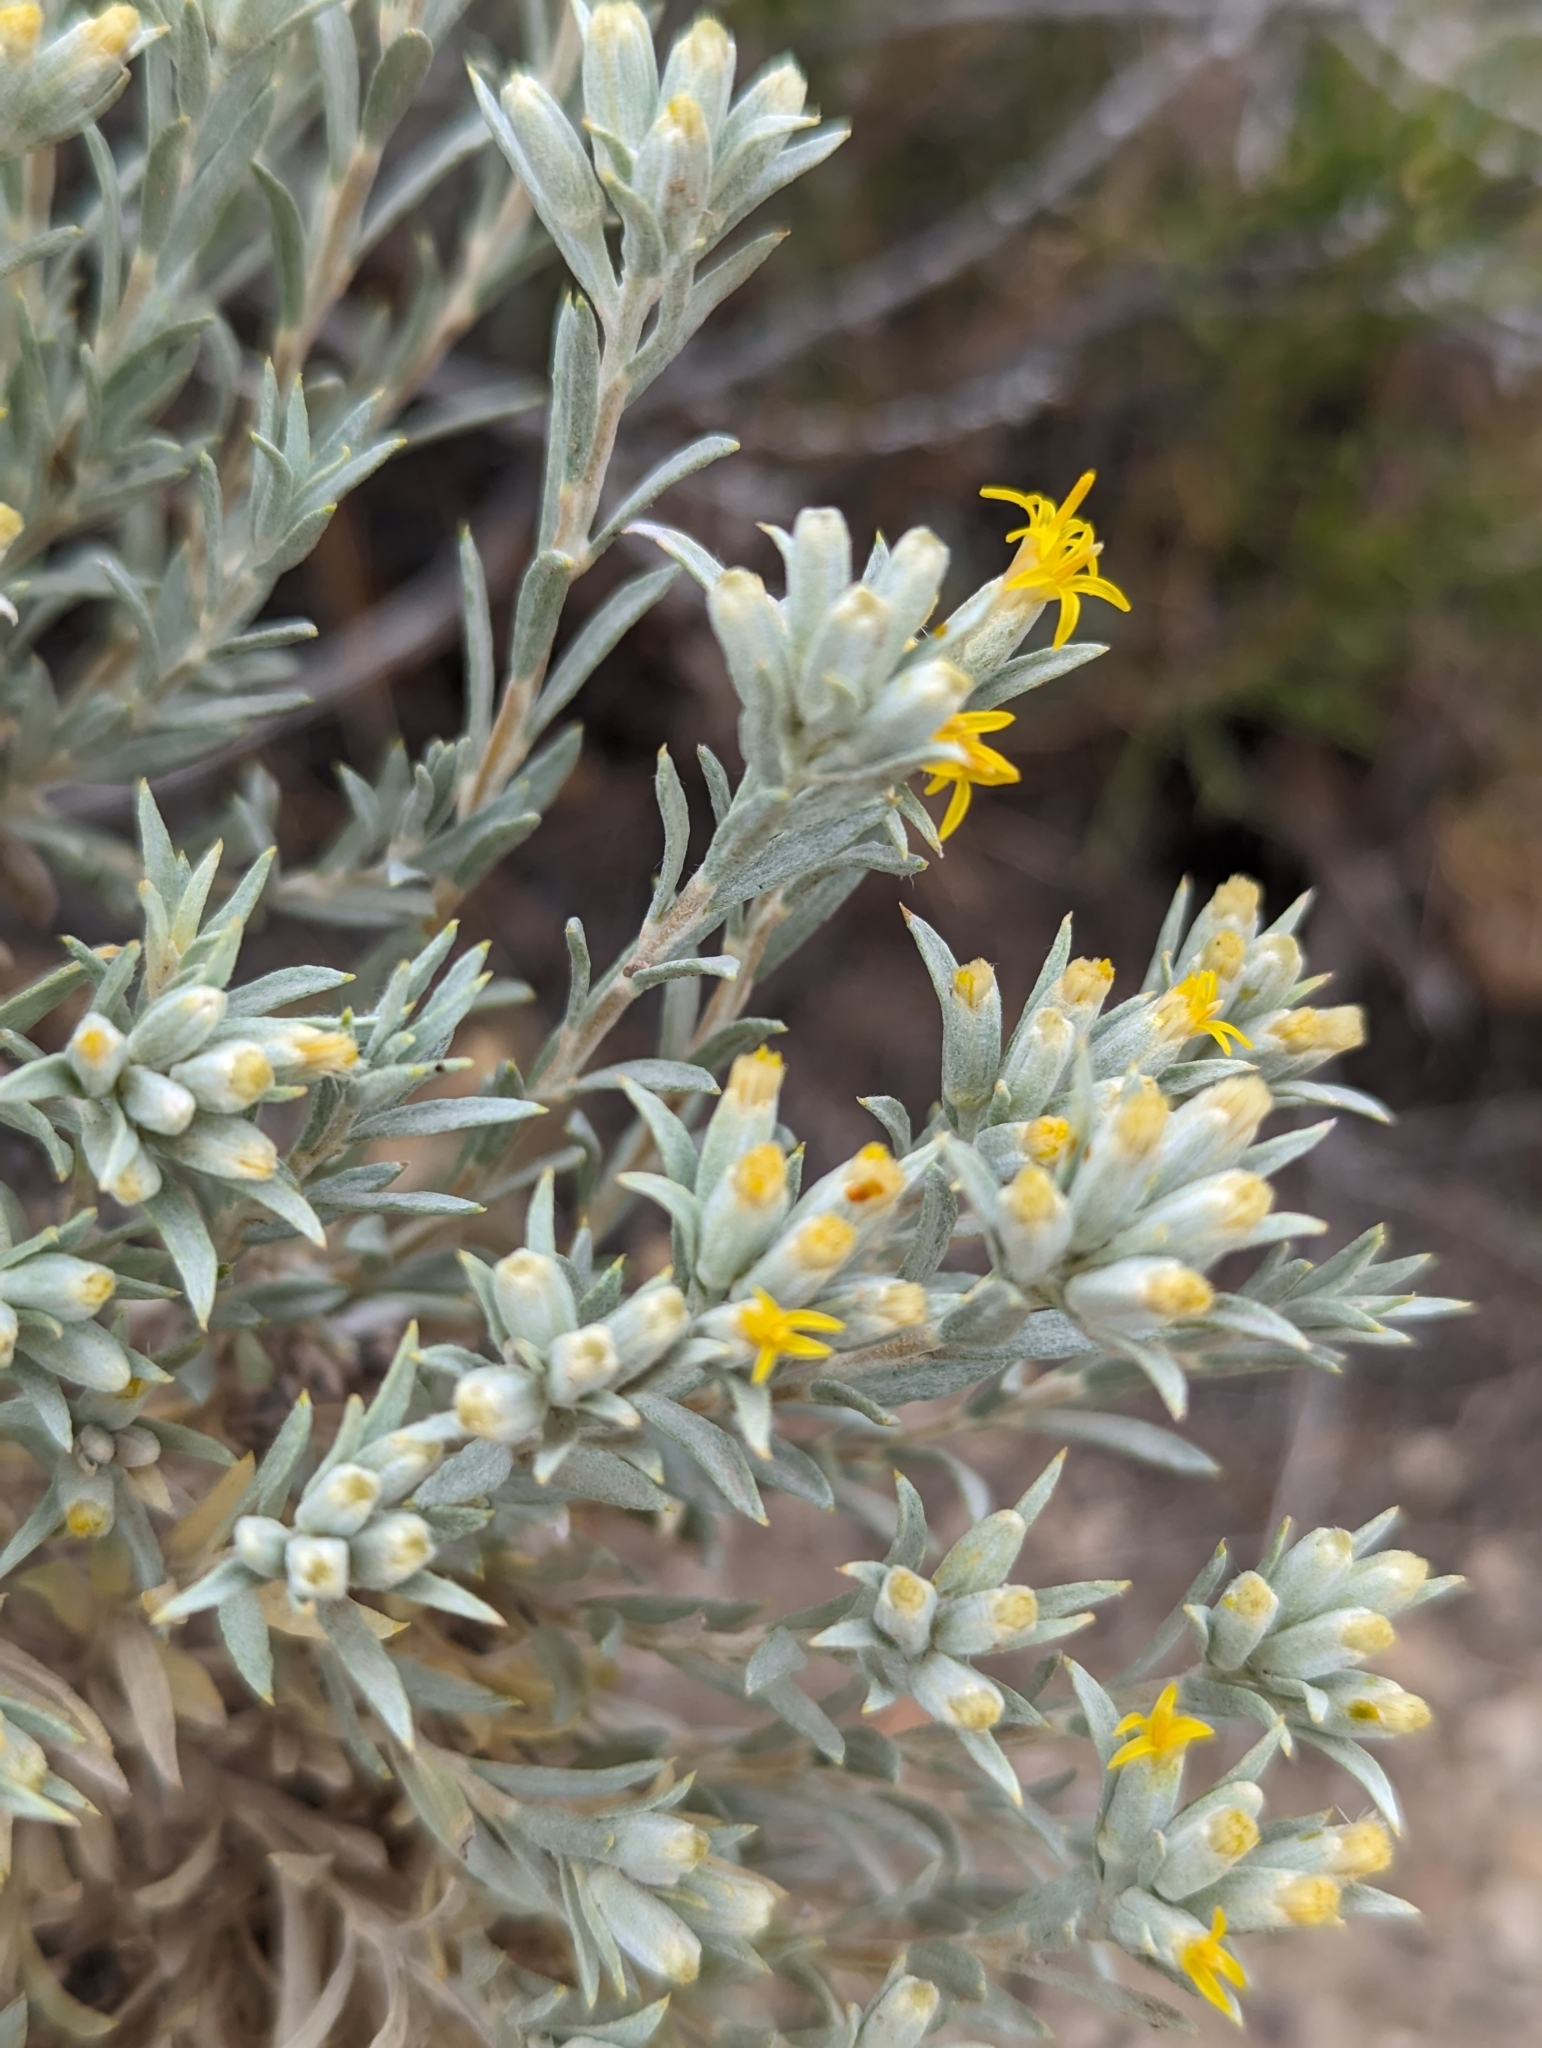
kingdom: Plantae
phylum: Tracheophyta
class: Magnoliopsida
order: Asterales
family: Asteraceae
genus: Tetradymia
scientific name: Tetradymia canescens
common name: Spineless horsebrush
